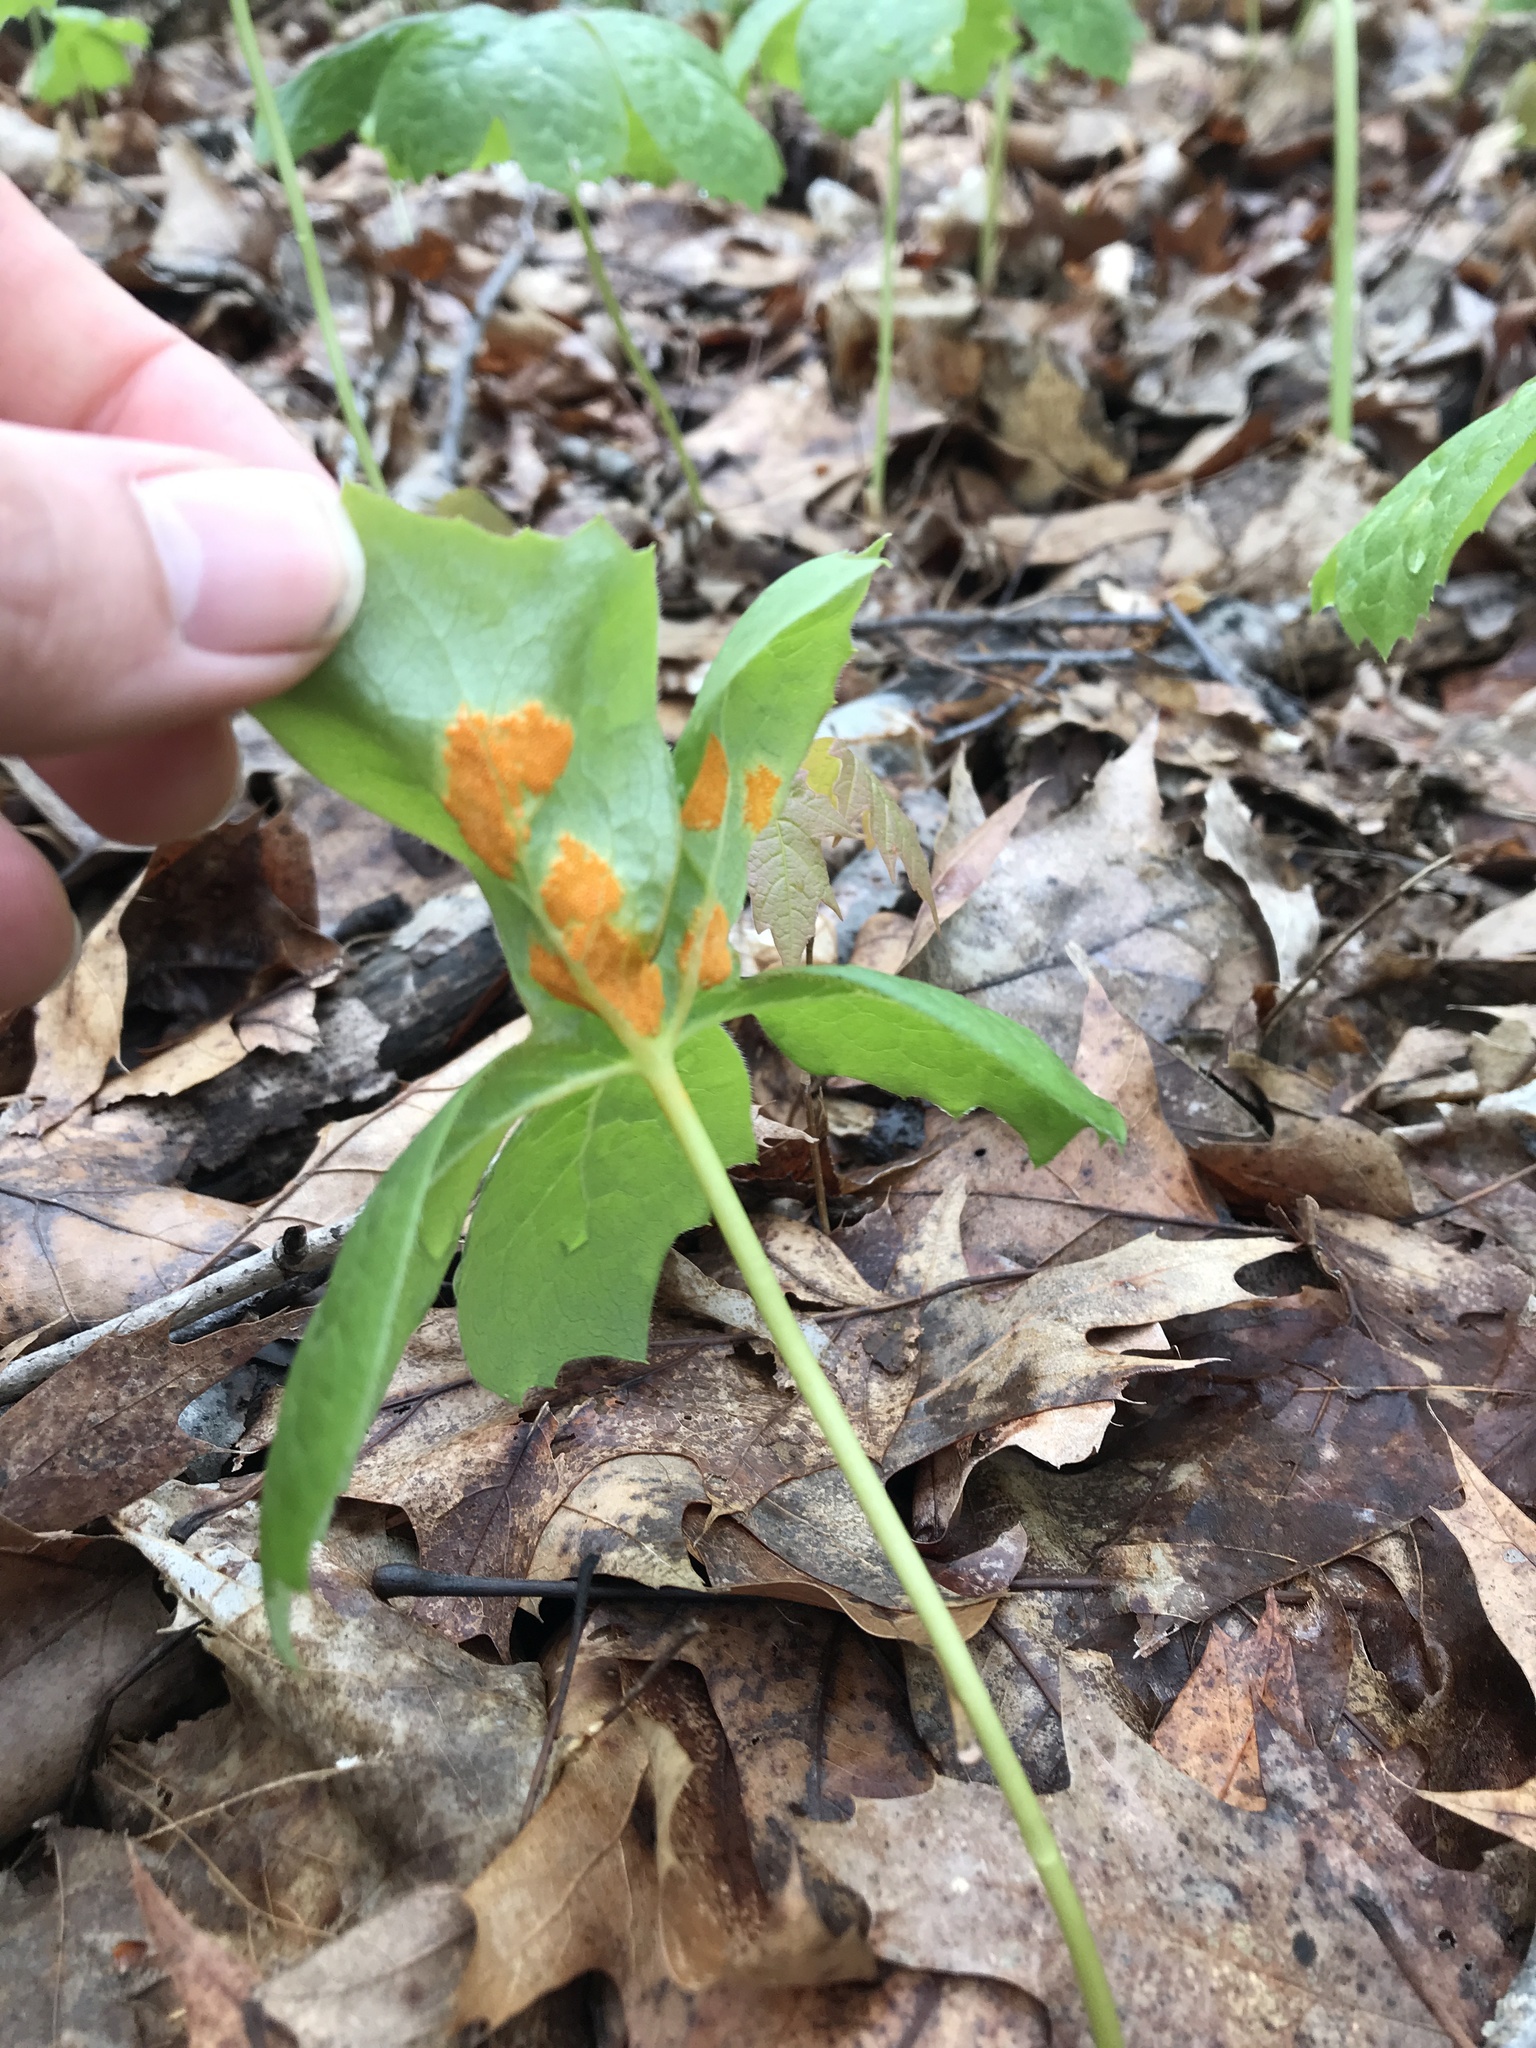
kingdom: Fungi
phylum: Basidiomycota
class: Pucciniomycetes
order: Pucciniales
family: Pucciniaceae
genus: Puccinia
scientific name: Puccinia podophylli
